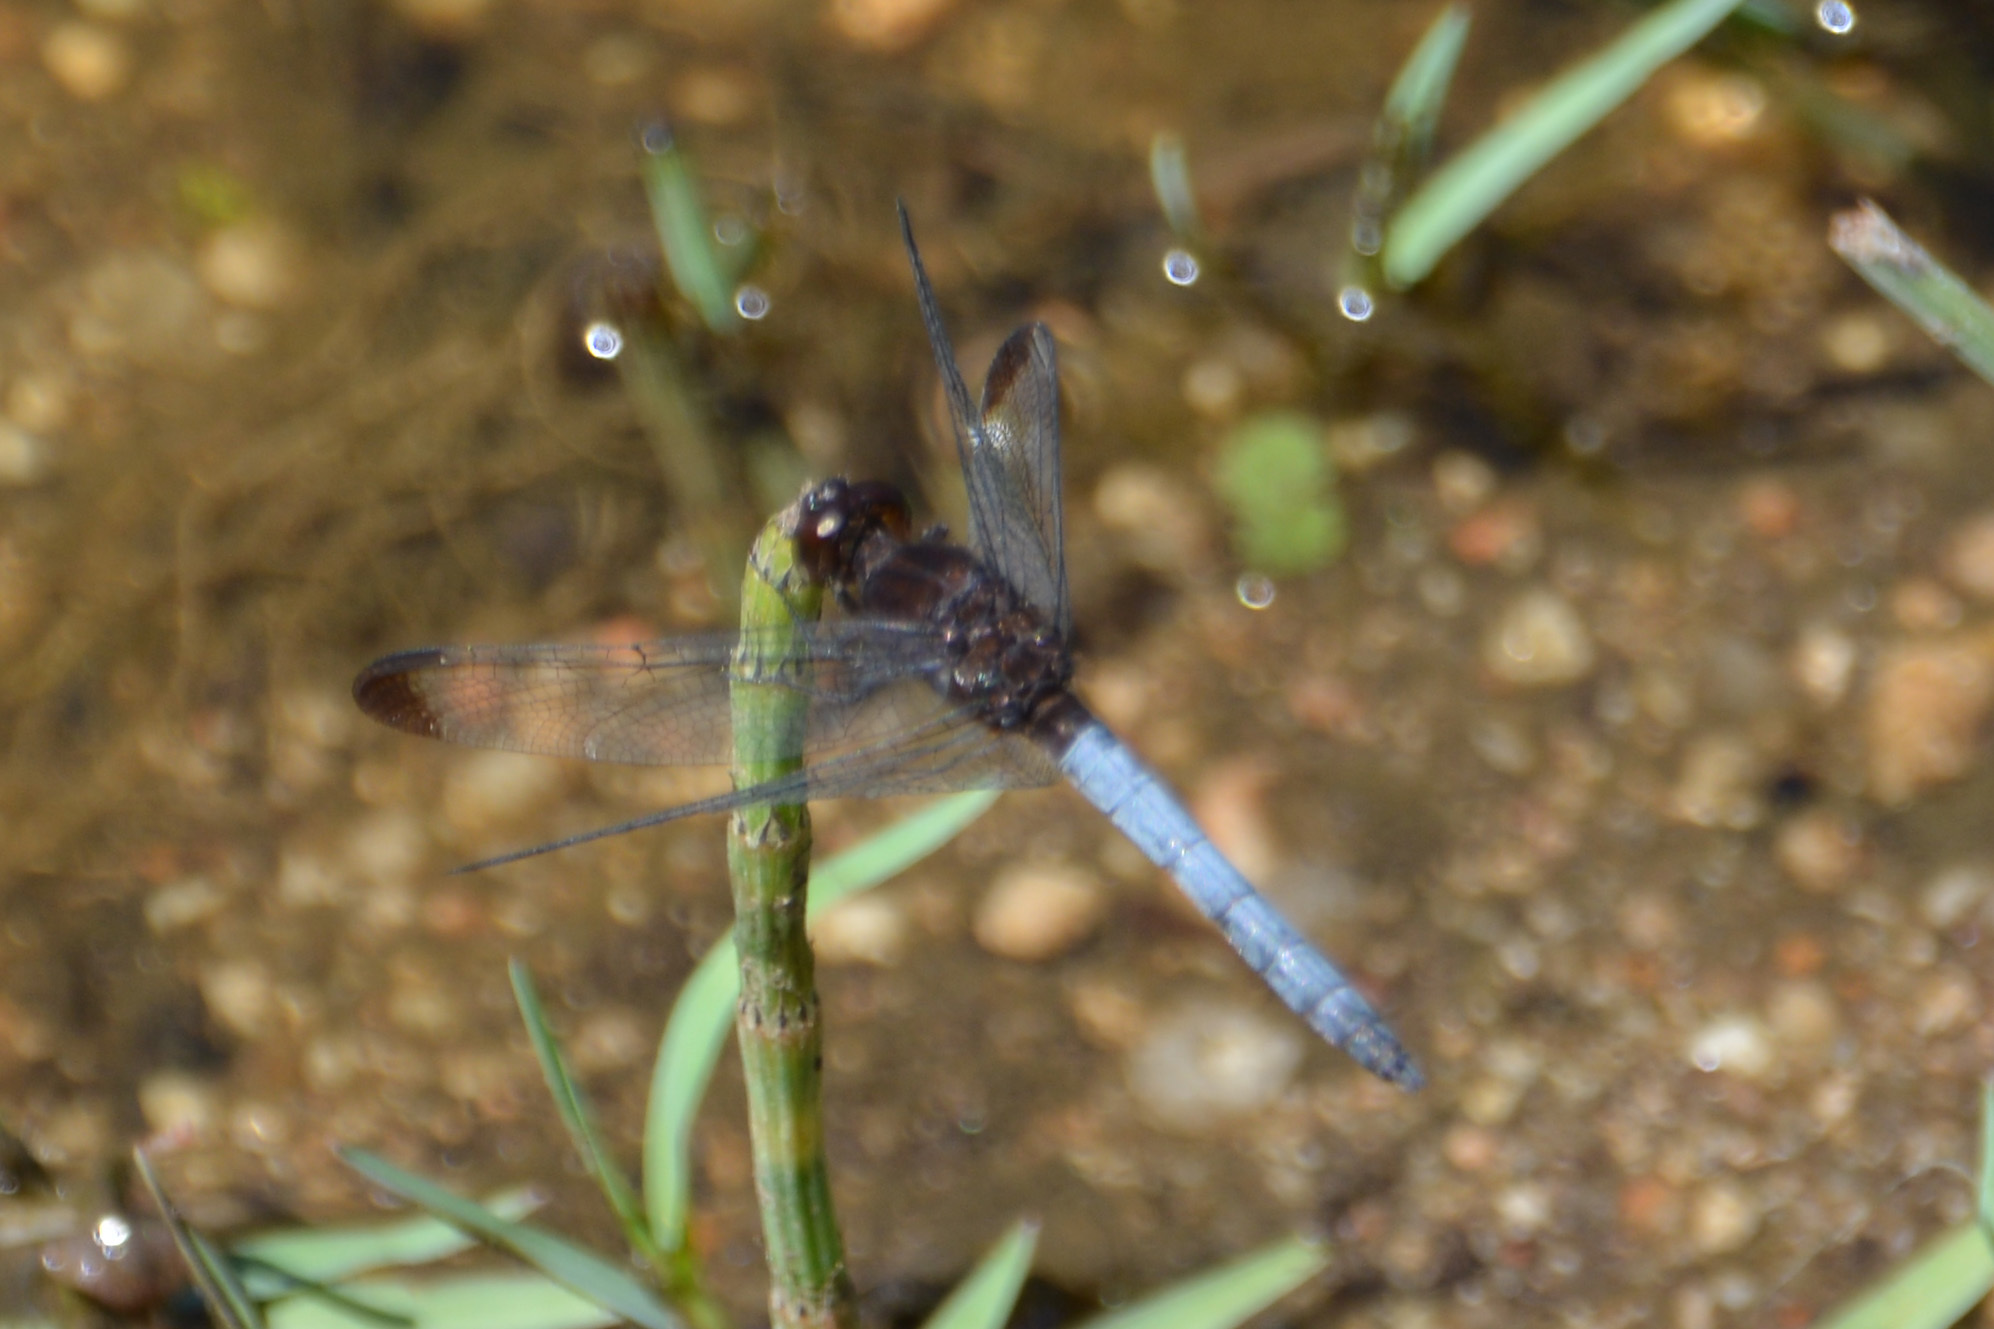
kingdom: Animalia
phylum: Arthropoda
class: Insecta
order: Odonata
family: Libellulidae
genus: Erythrodiplax
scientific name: Erythrodiplax atroterminata
